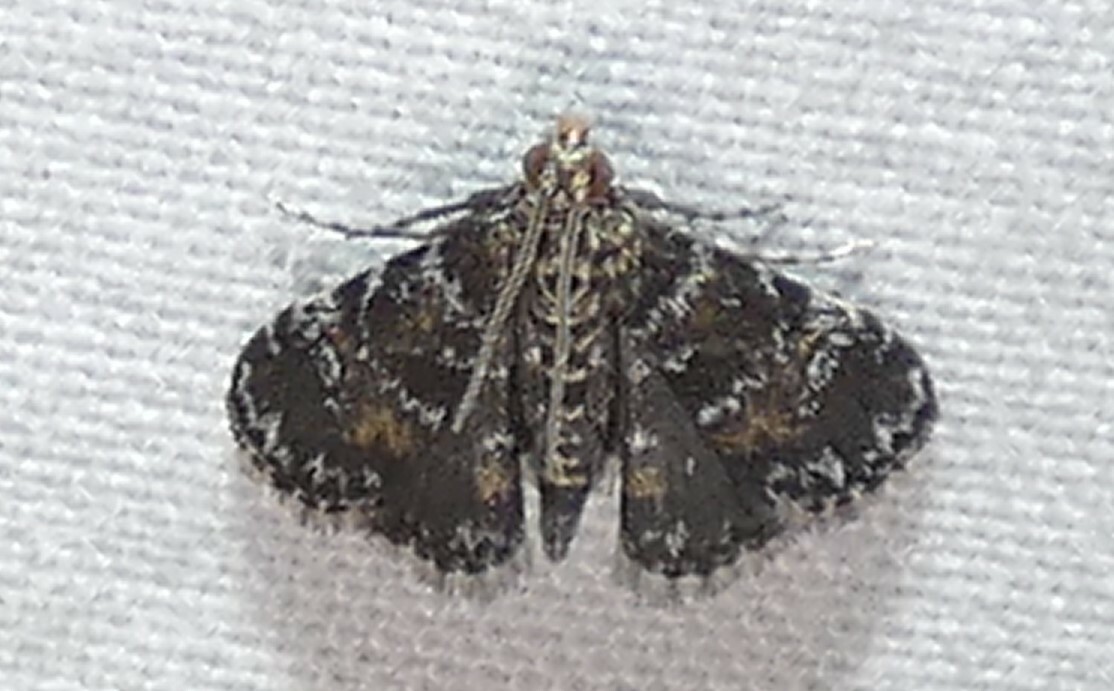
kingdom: Animalia
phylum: Arthropoda
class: Insecta
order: Lepidoptera
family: Crambidae
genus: Elophila
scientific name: Elophila obliteralis
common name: Waterlily leafcutter moth
